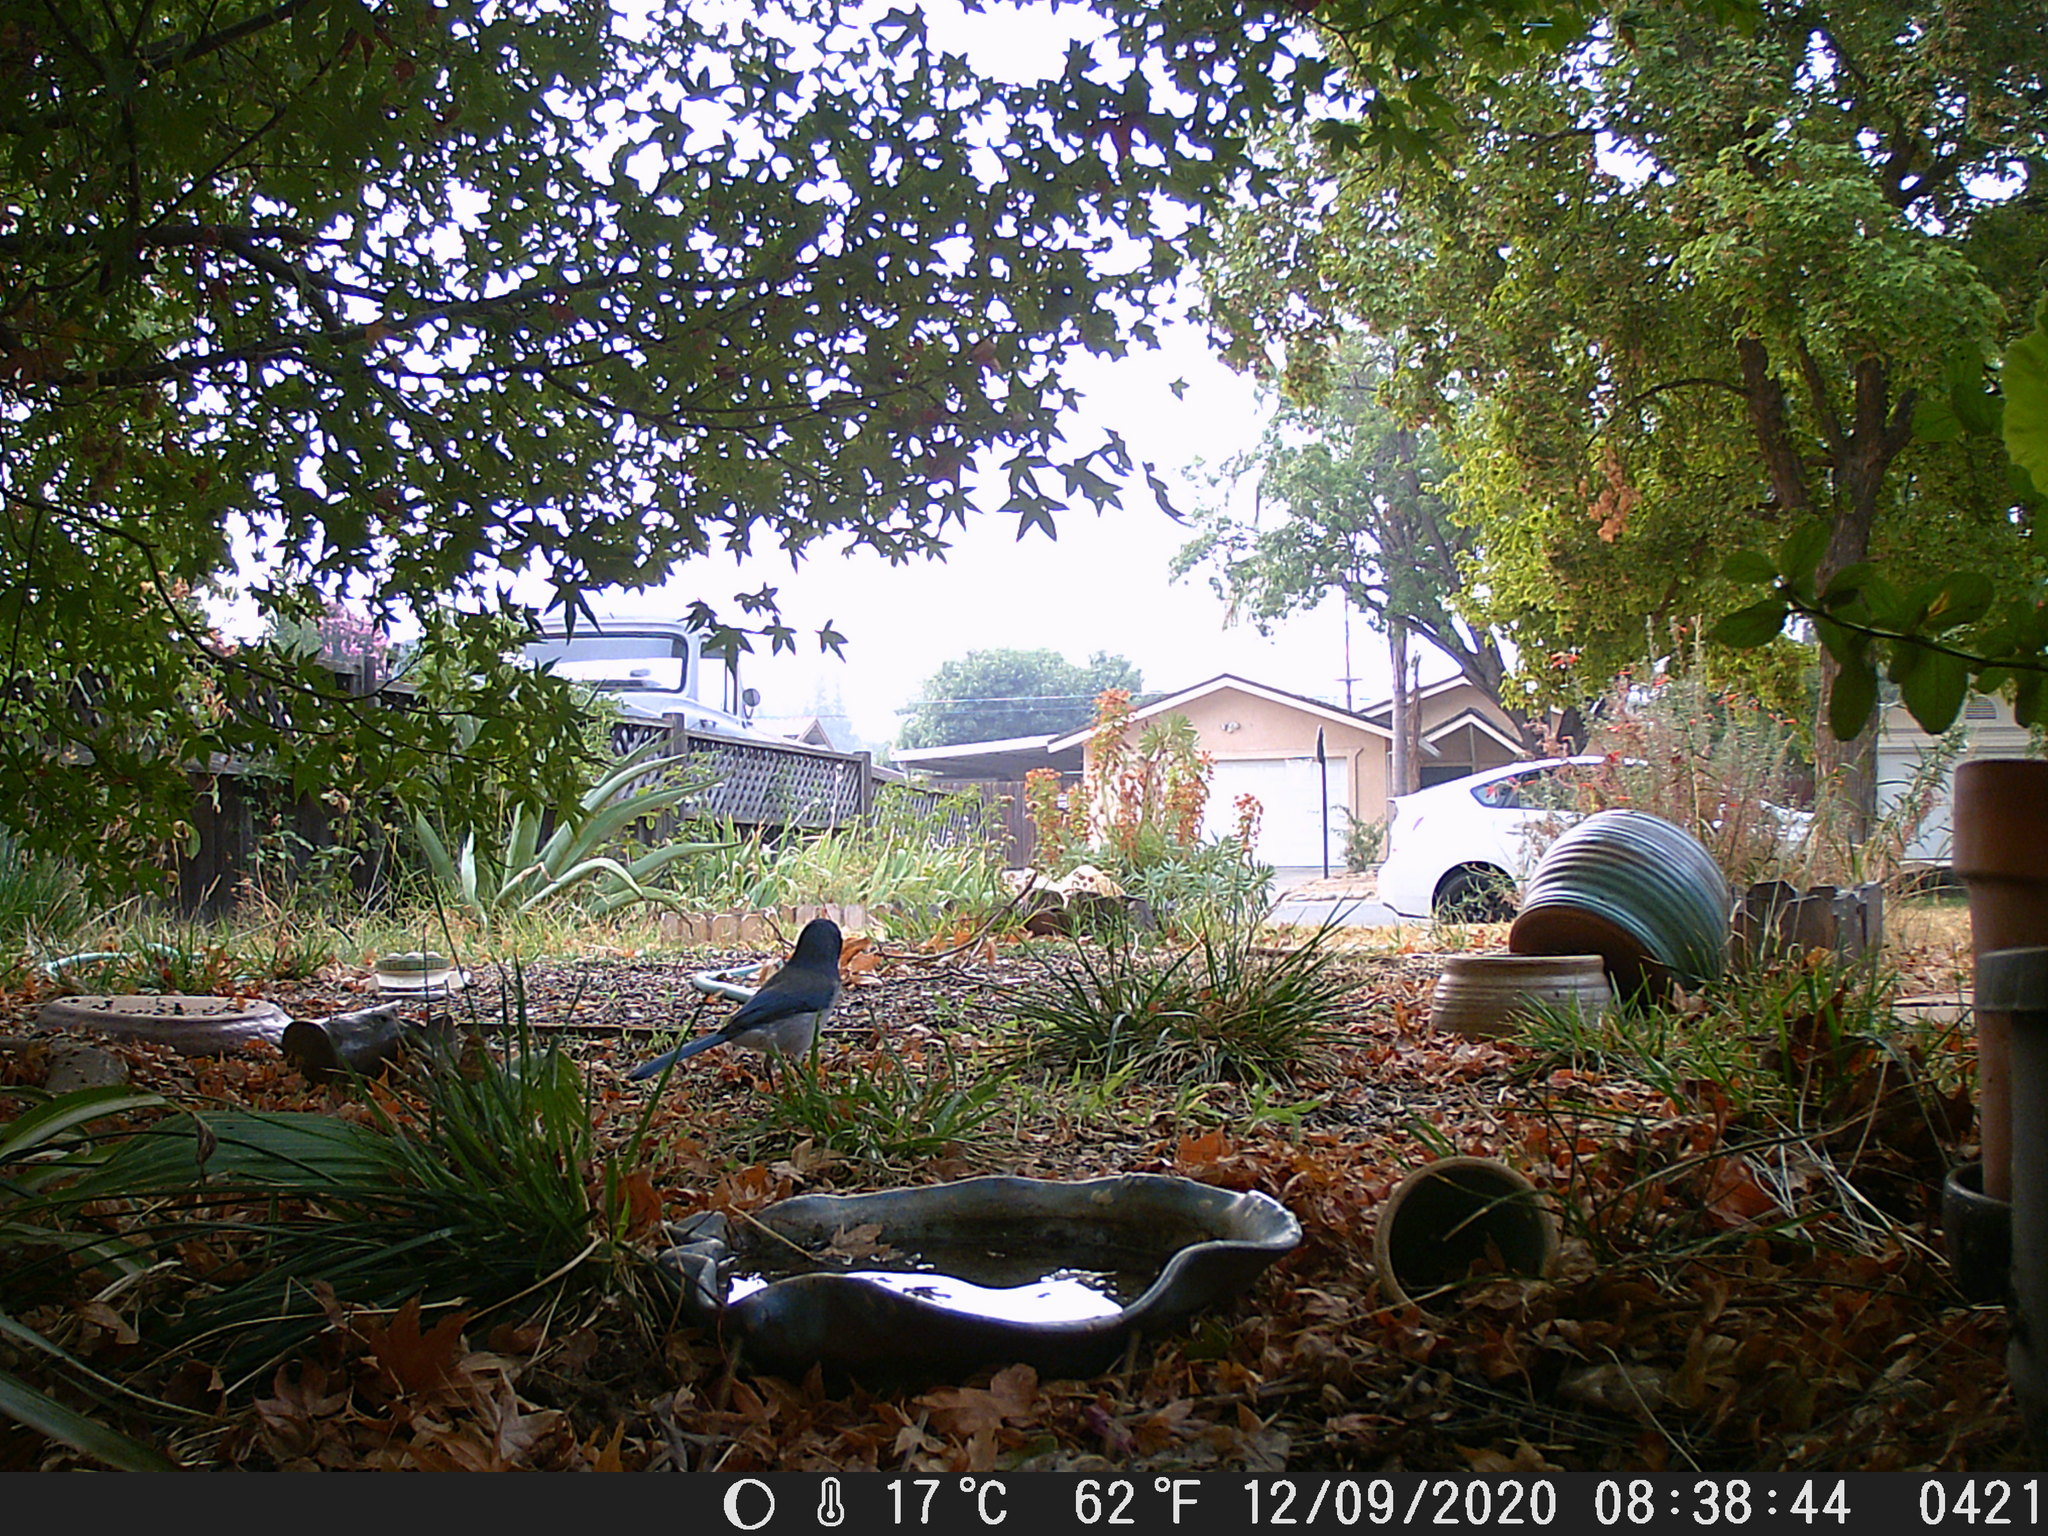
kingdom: Animalia
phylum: Chordata
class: Aves
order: Passeriformes
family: Corvidae
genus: Aphelocoma
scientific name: Aphelocoma californica
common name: California scrub-jay
